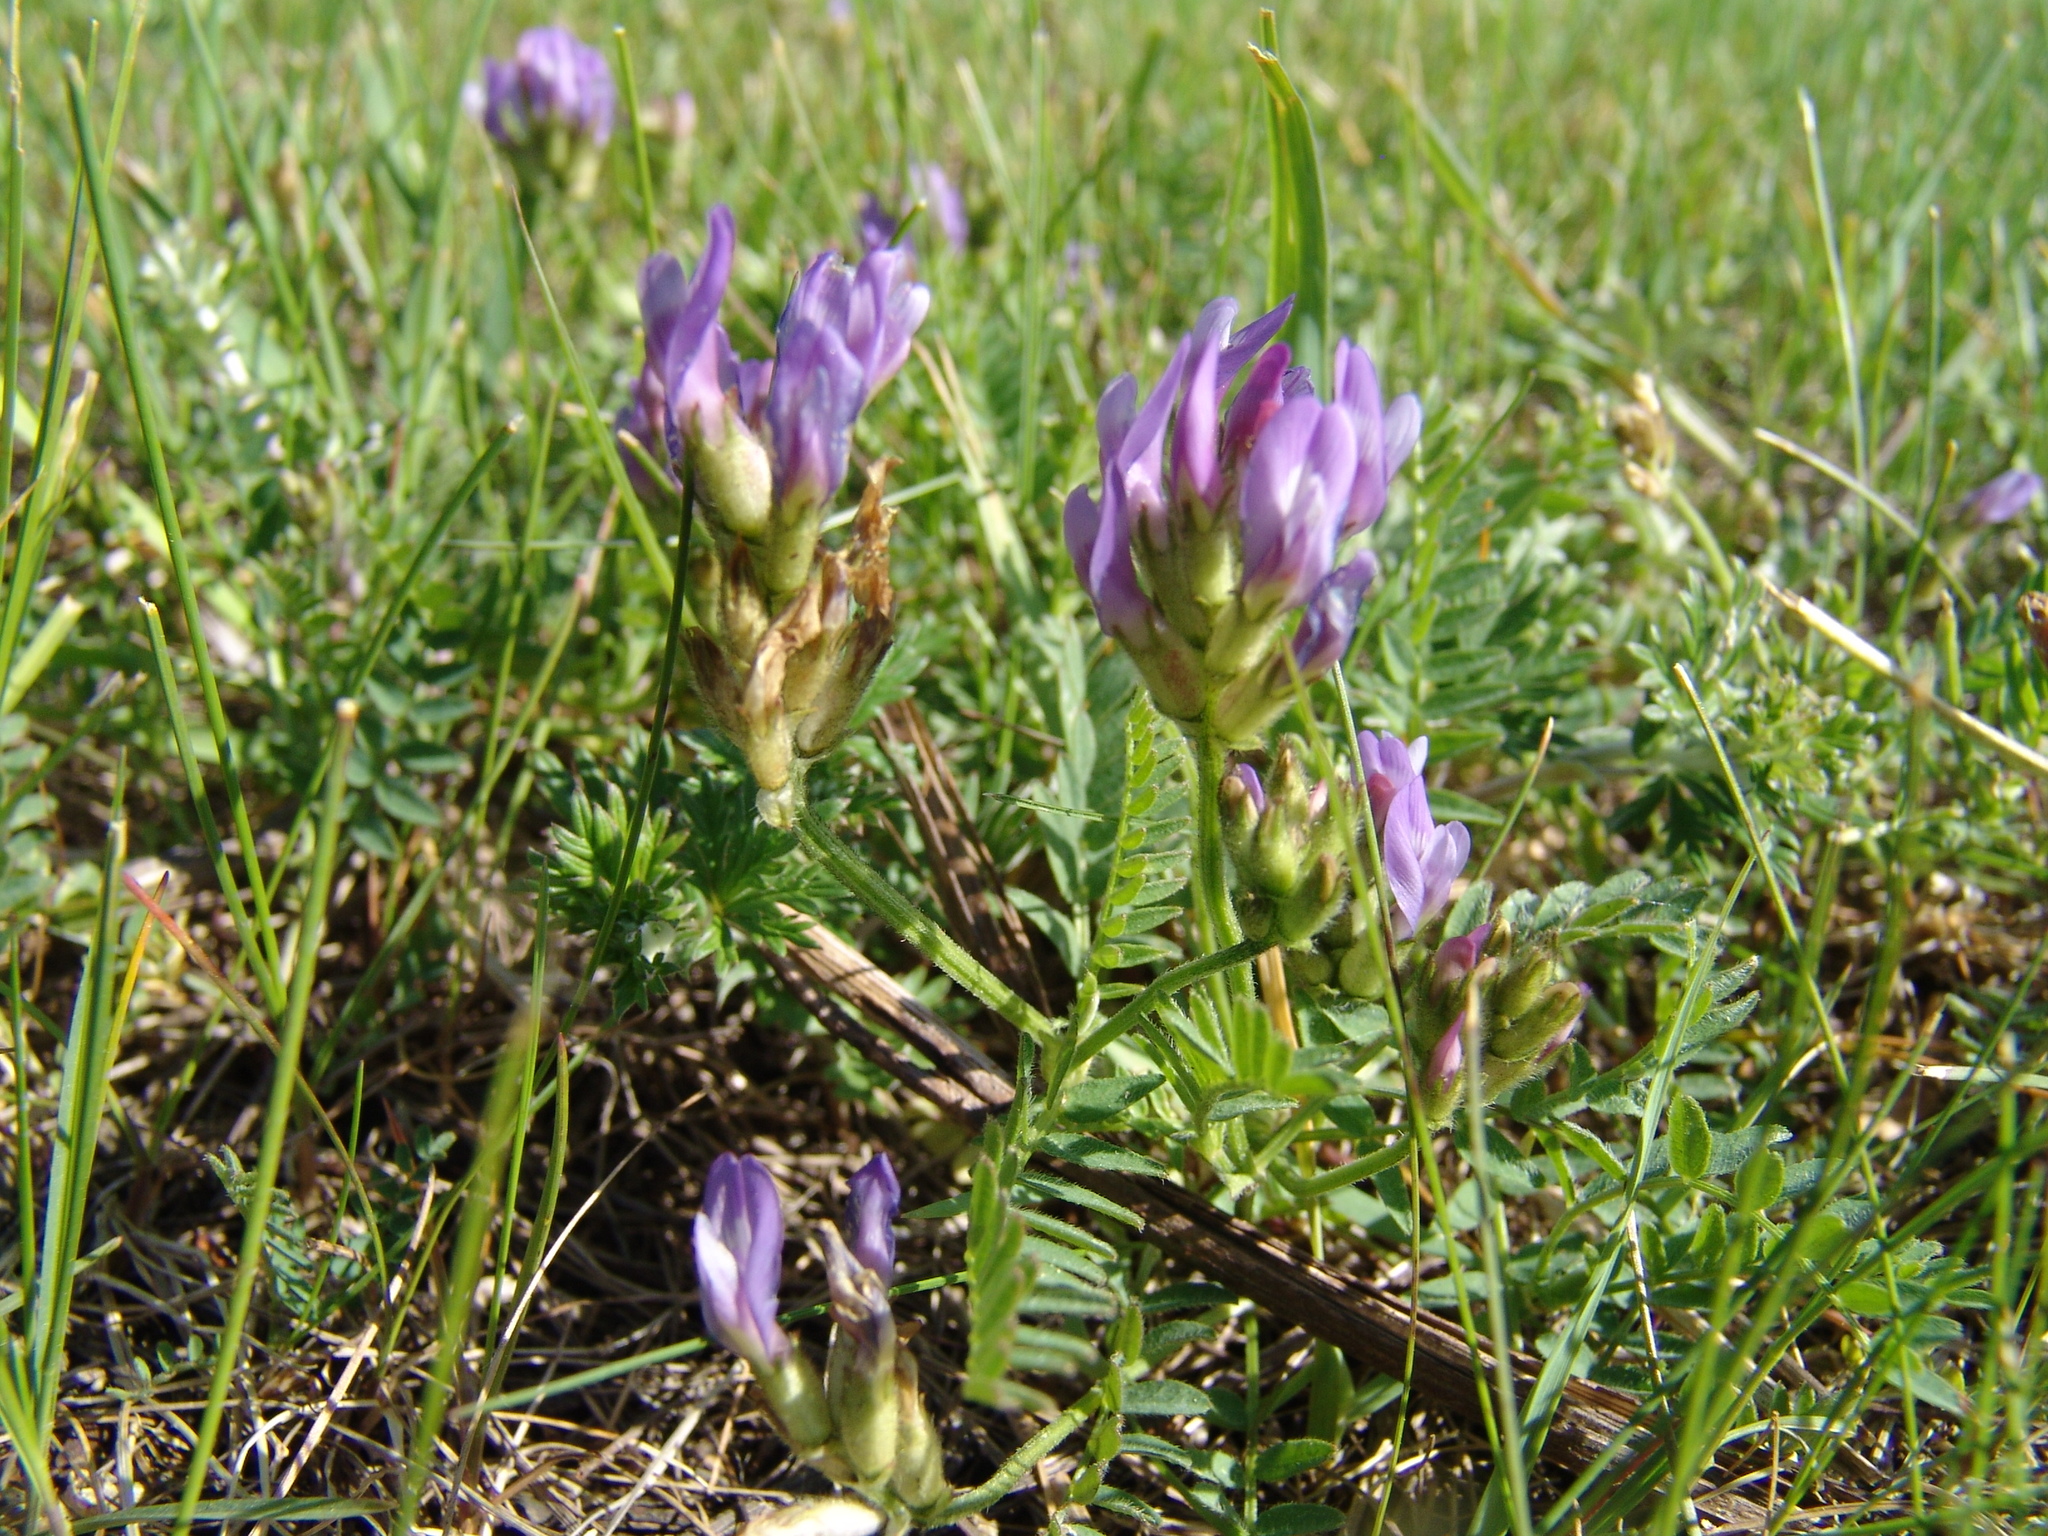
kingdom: Plantae
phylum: Tracheophyta
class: Magnoliopsida
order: Fabales
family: Fabaceae
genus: Astragalus
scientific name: Astragalus danicus
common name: Purple milk-vetch
